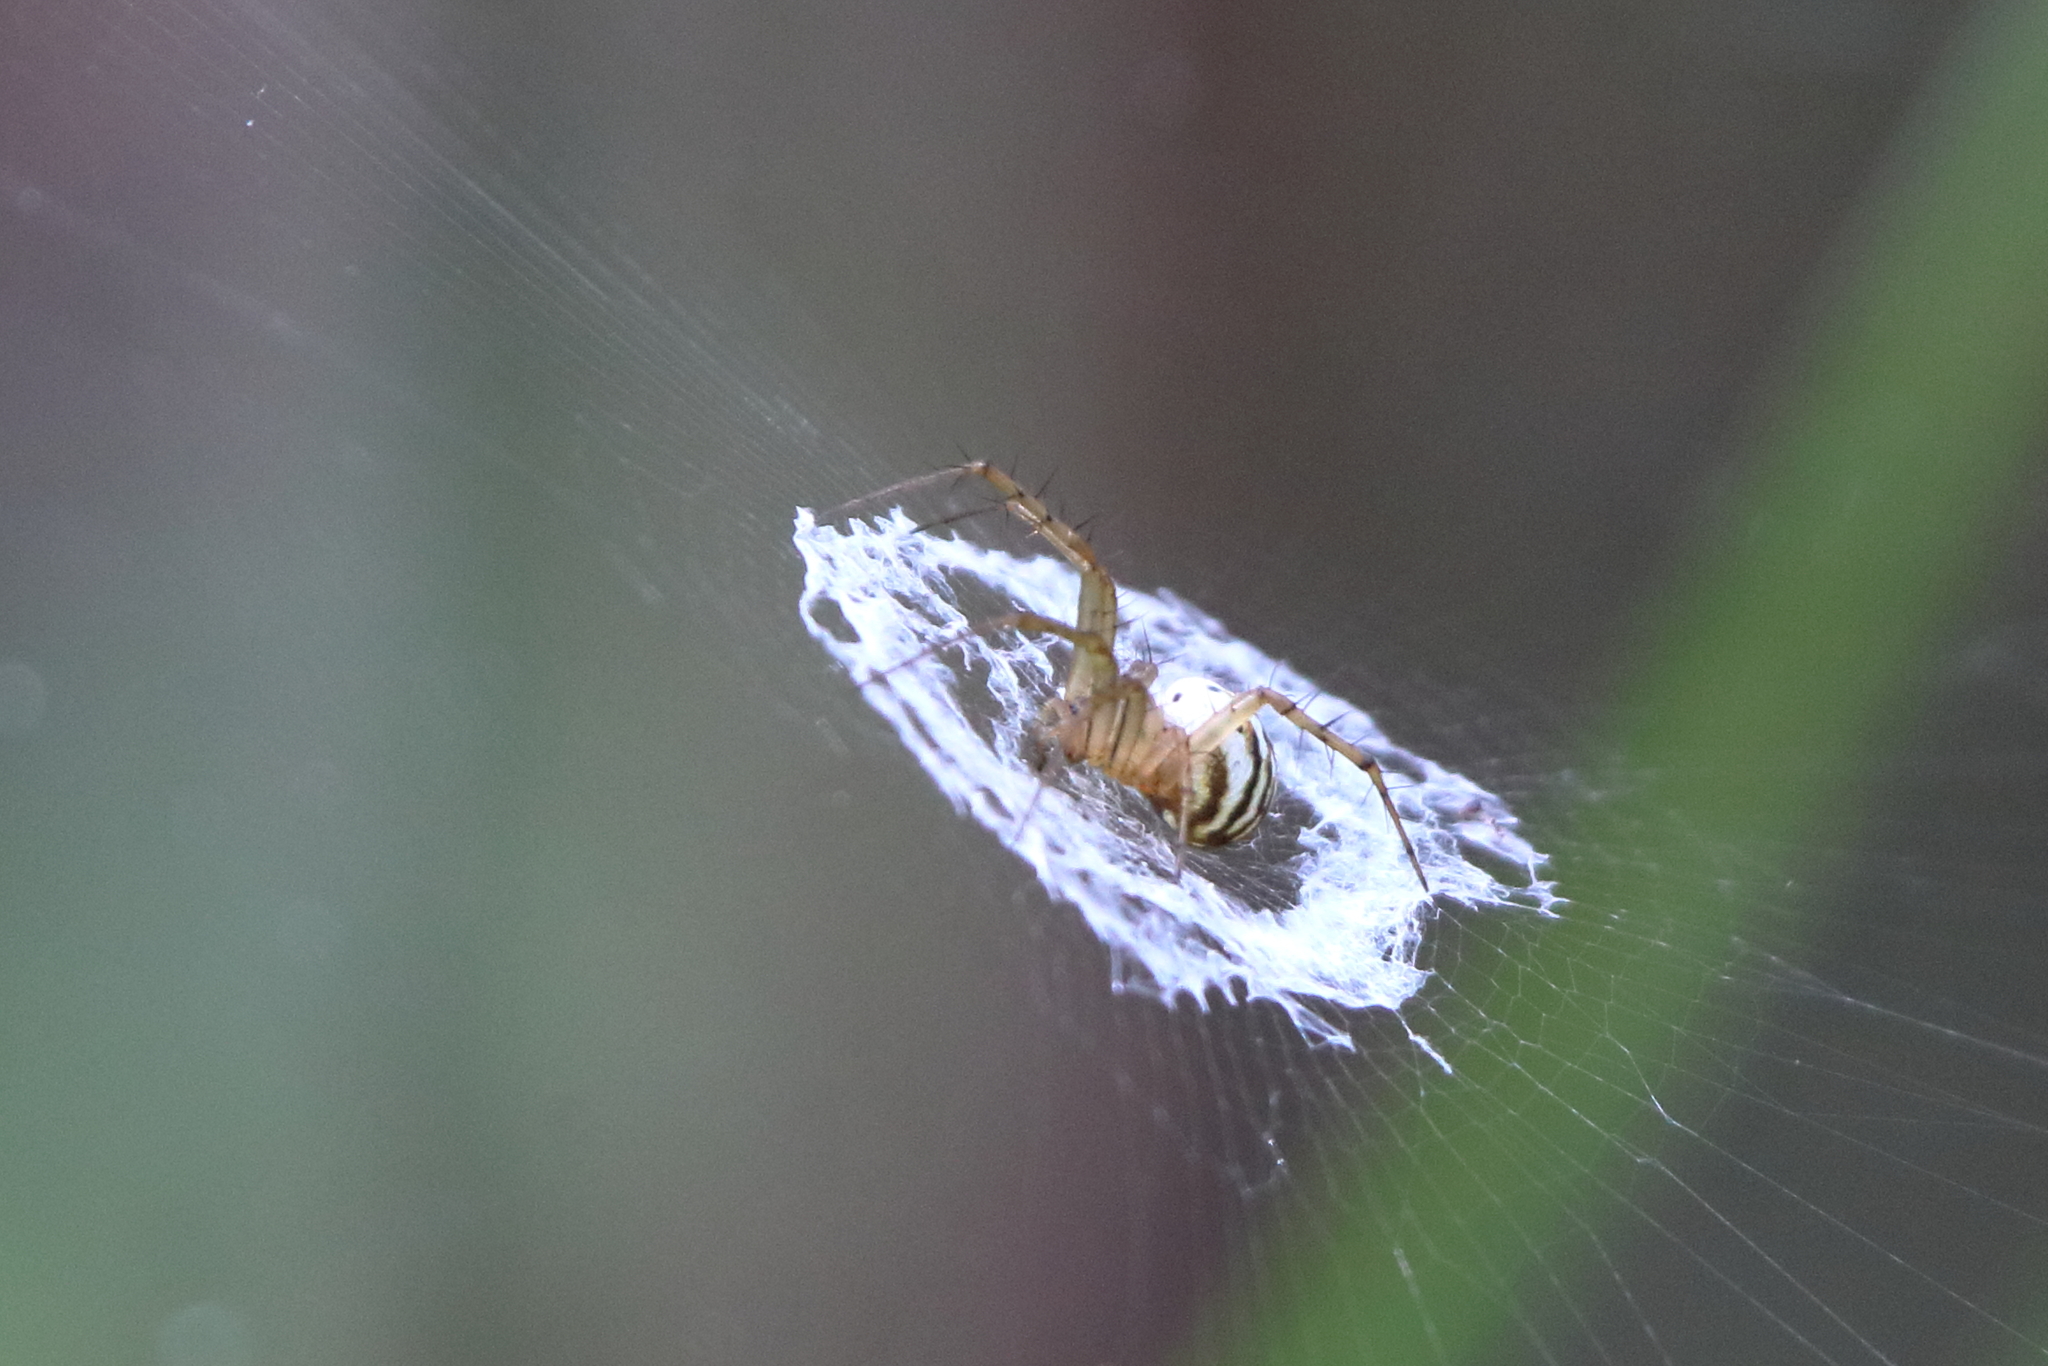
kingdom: Animalia
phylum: Arthropoda
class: Arachnida
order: Araneae
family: Araneidae
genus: Mangora
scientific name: Mangora gibberosa
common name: Lined orbweaver
